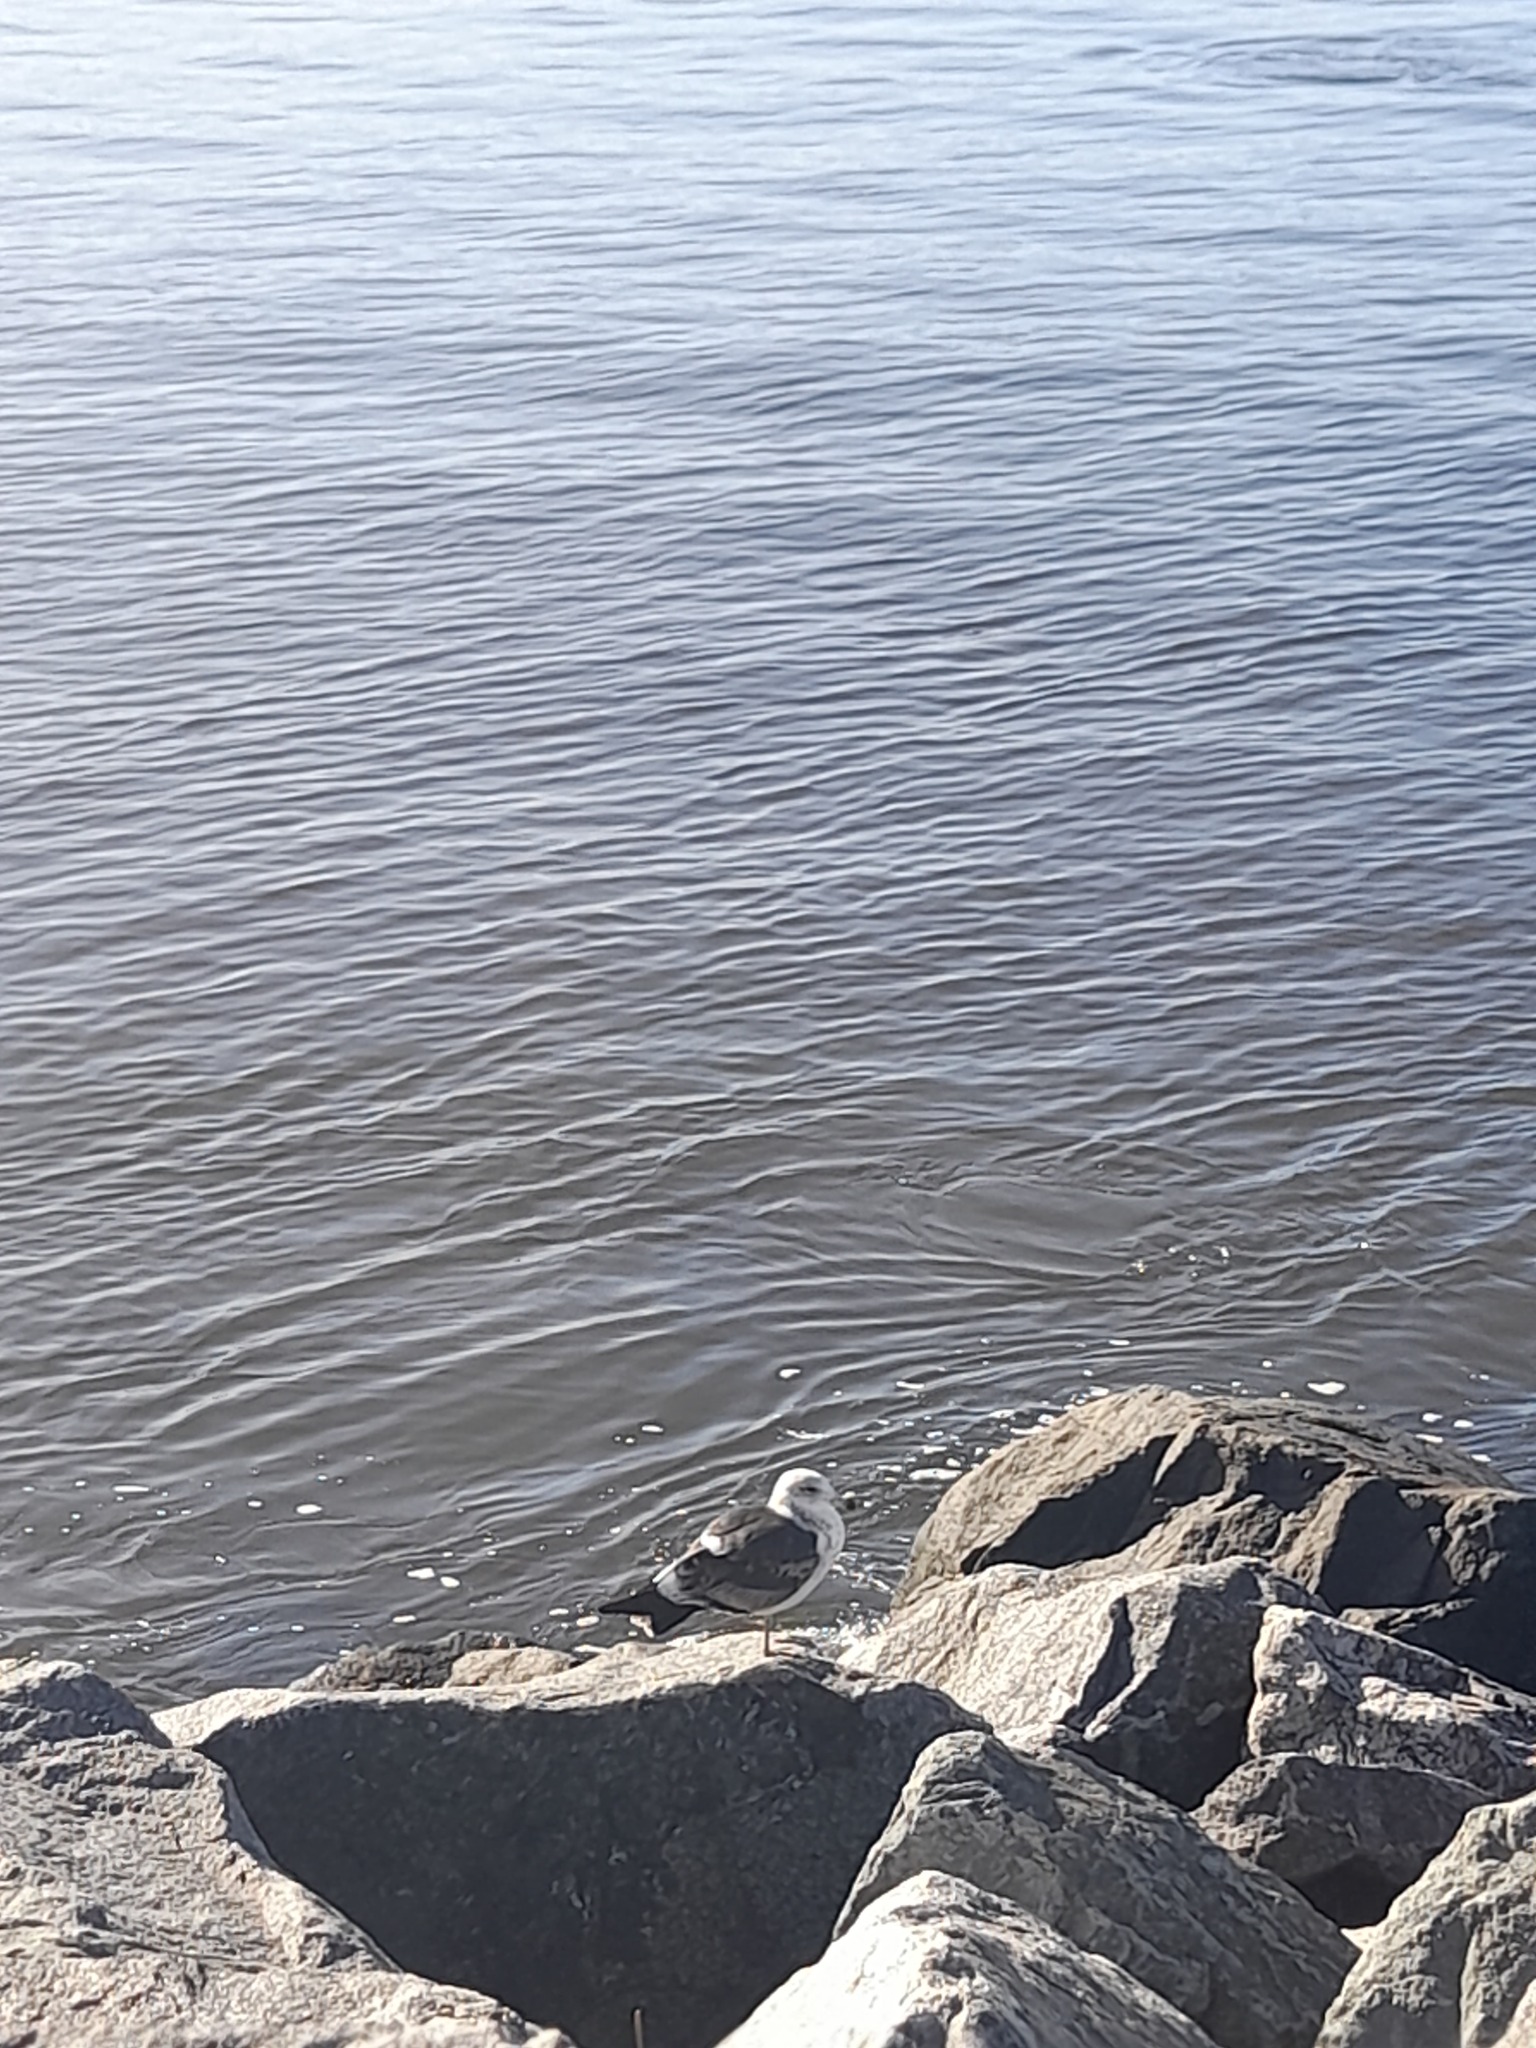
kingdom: Animalia
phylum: Chordata
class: Aves
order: Charadriiformes
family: Laridae
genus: Larus
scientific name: Larus dominicanus
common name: Kelp gull
